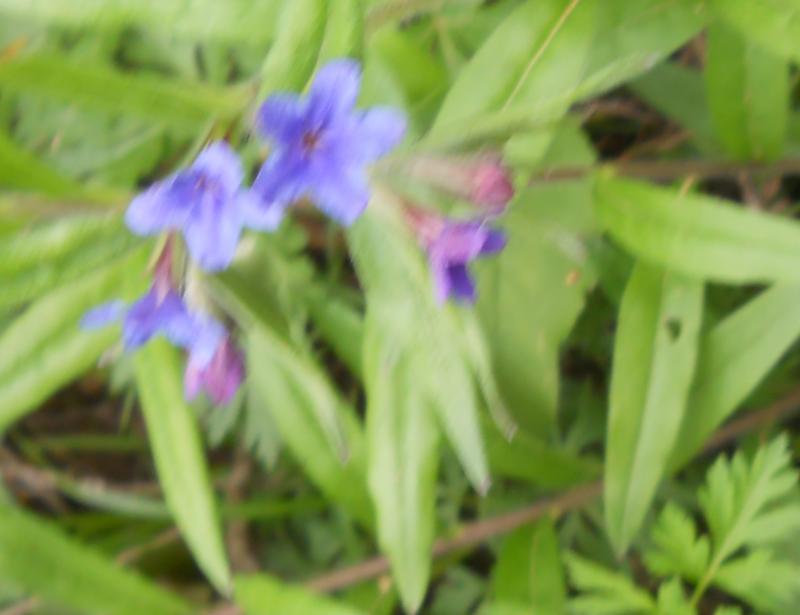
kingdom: Plantae
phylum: Tracheophyta
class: Magnoliopsida
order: Boraginales
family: Boraginaceae
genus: Aegonychon
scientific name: Aegonychon purpurocaeruleum
